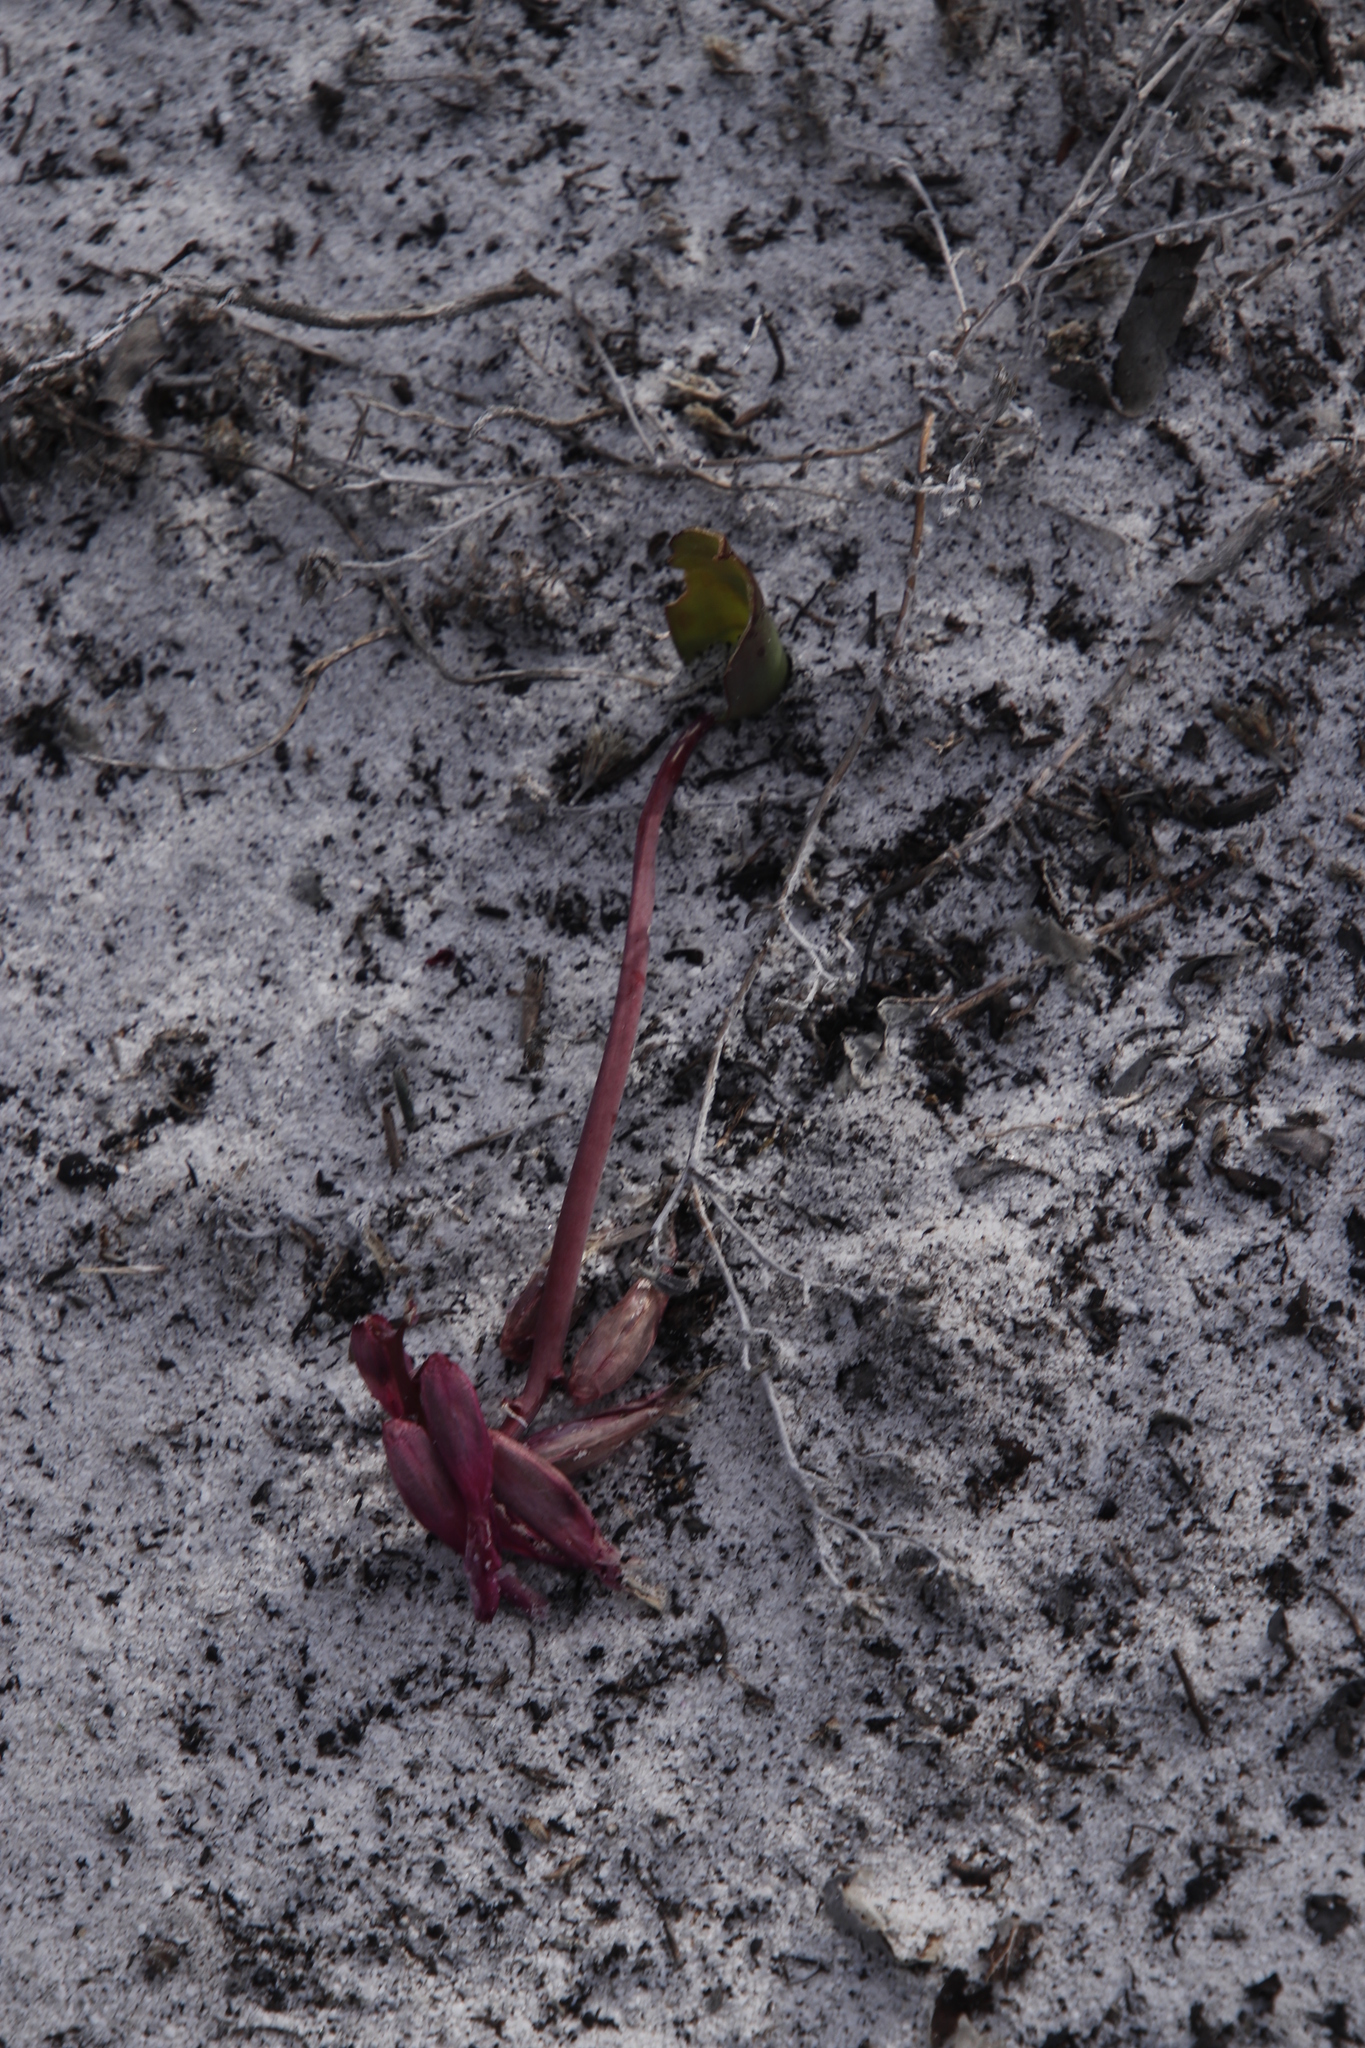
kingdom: Plantae
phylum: Tracheophyta
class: Liliopsida
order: Asparagales
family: Asparagaceae
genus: Lachenalia
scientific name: Lachenalia punctata
